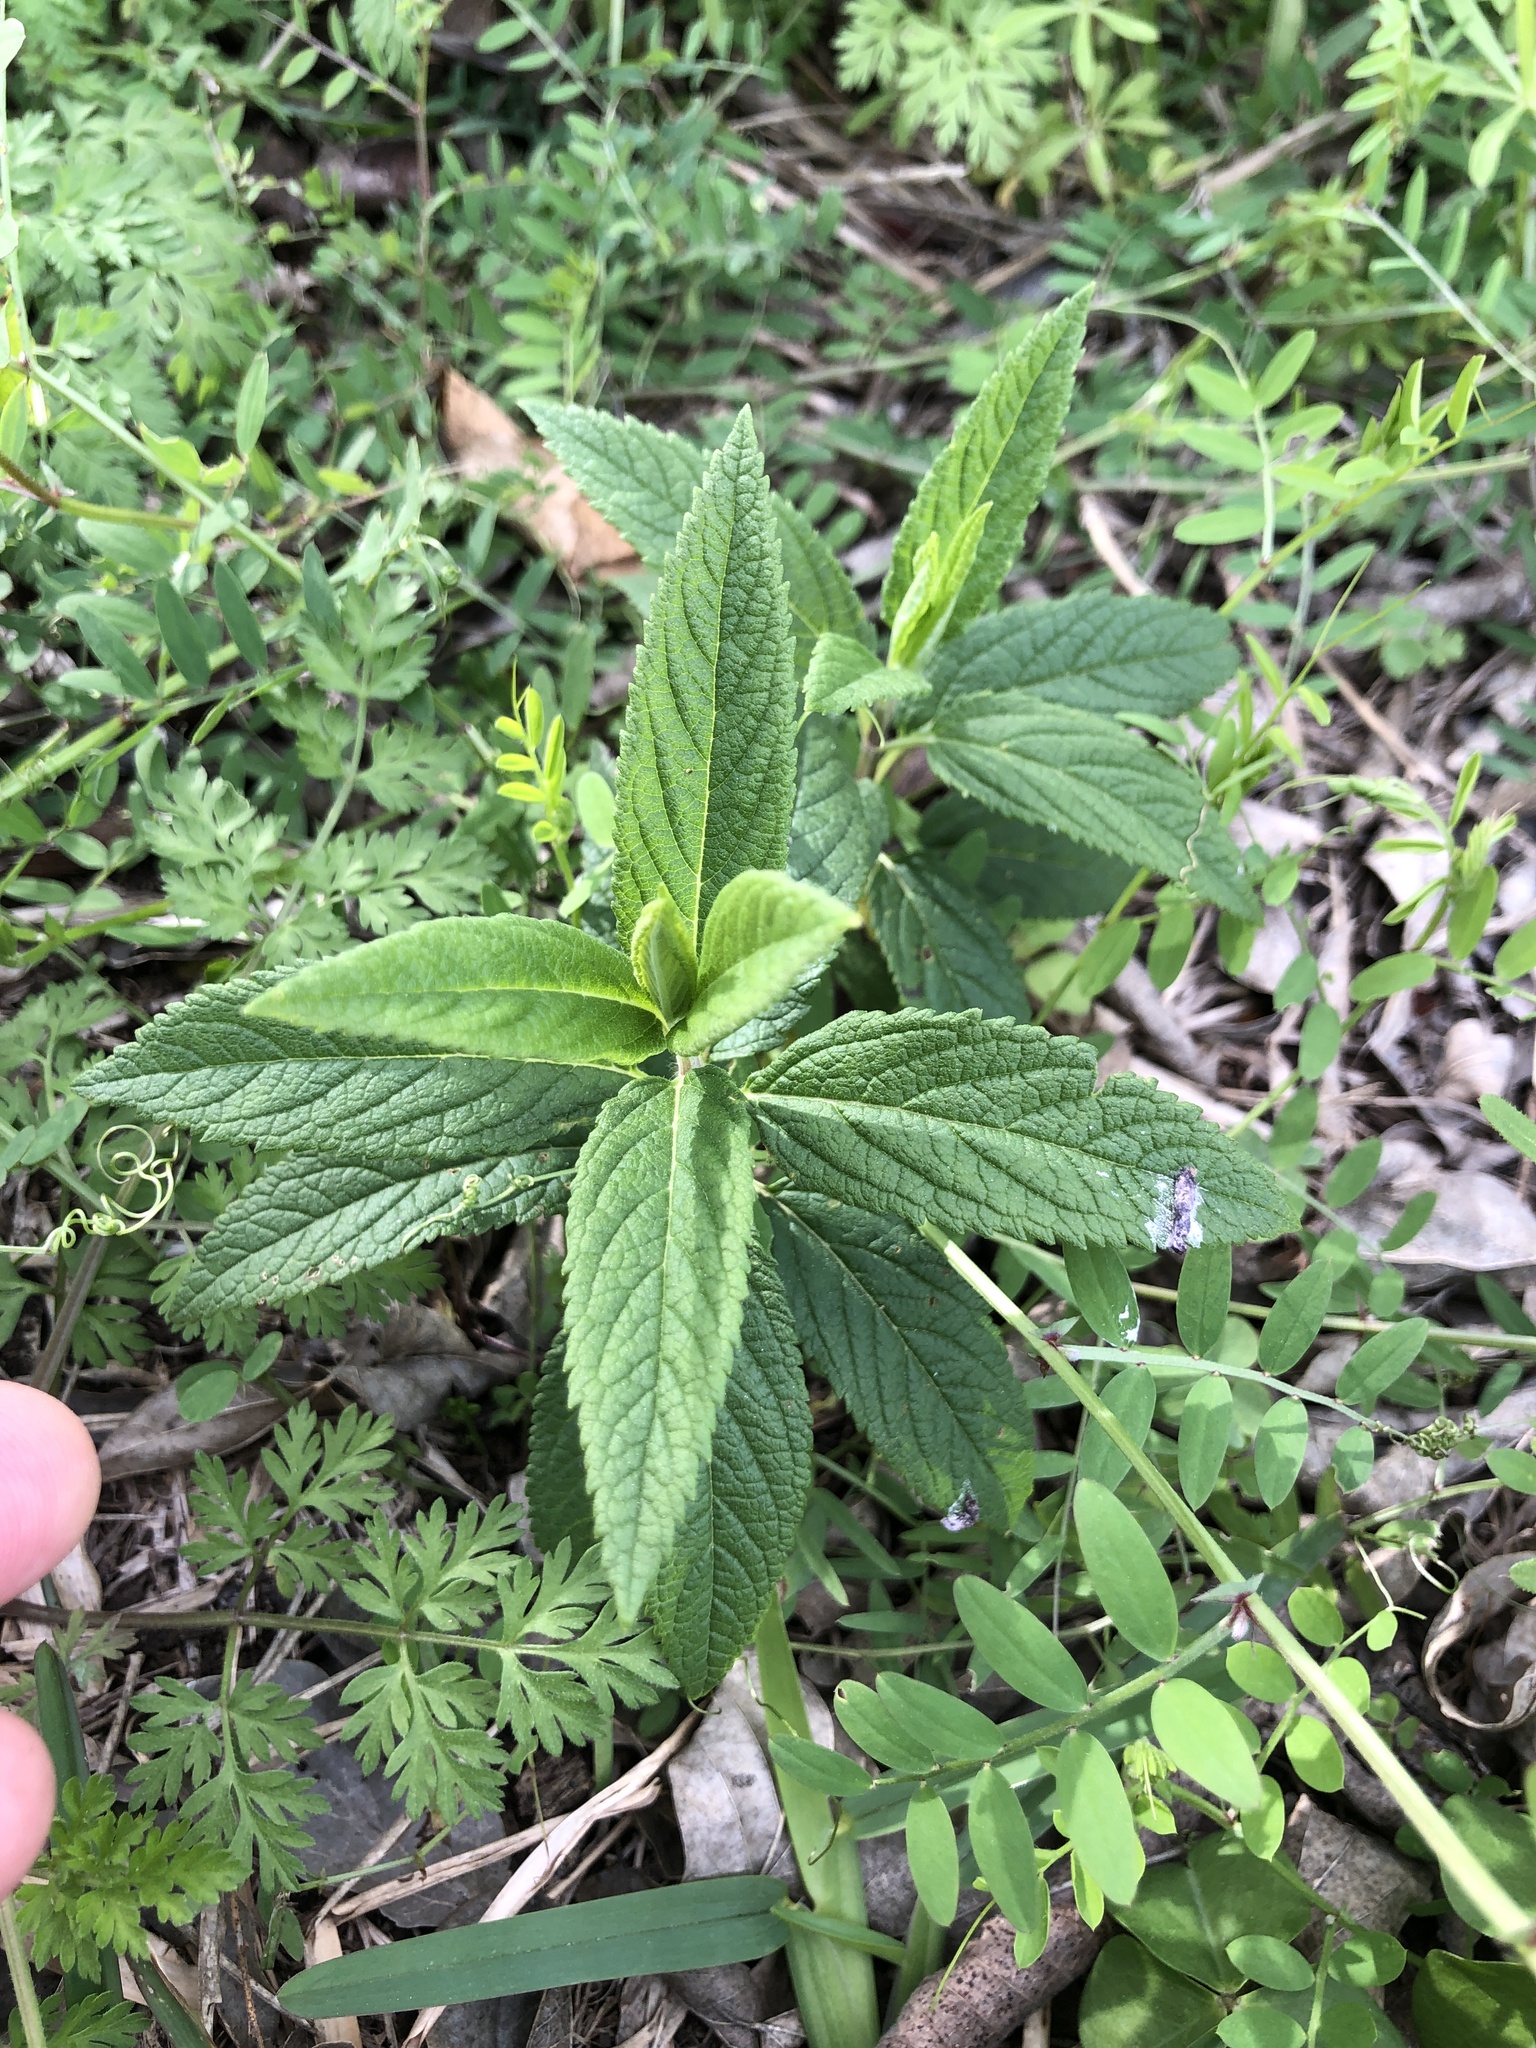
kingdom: Plantae
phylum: Tracheophyta
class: Magnoliopsida
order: Lamiales
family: Lamiaceae
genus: Teucrium
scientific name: Teucrium canadense
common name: American germander
